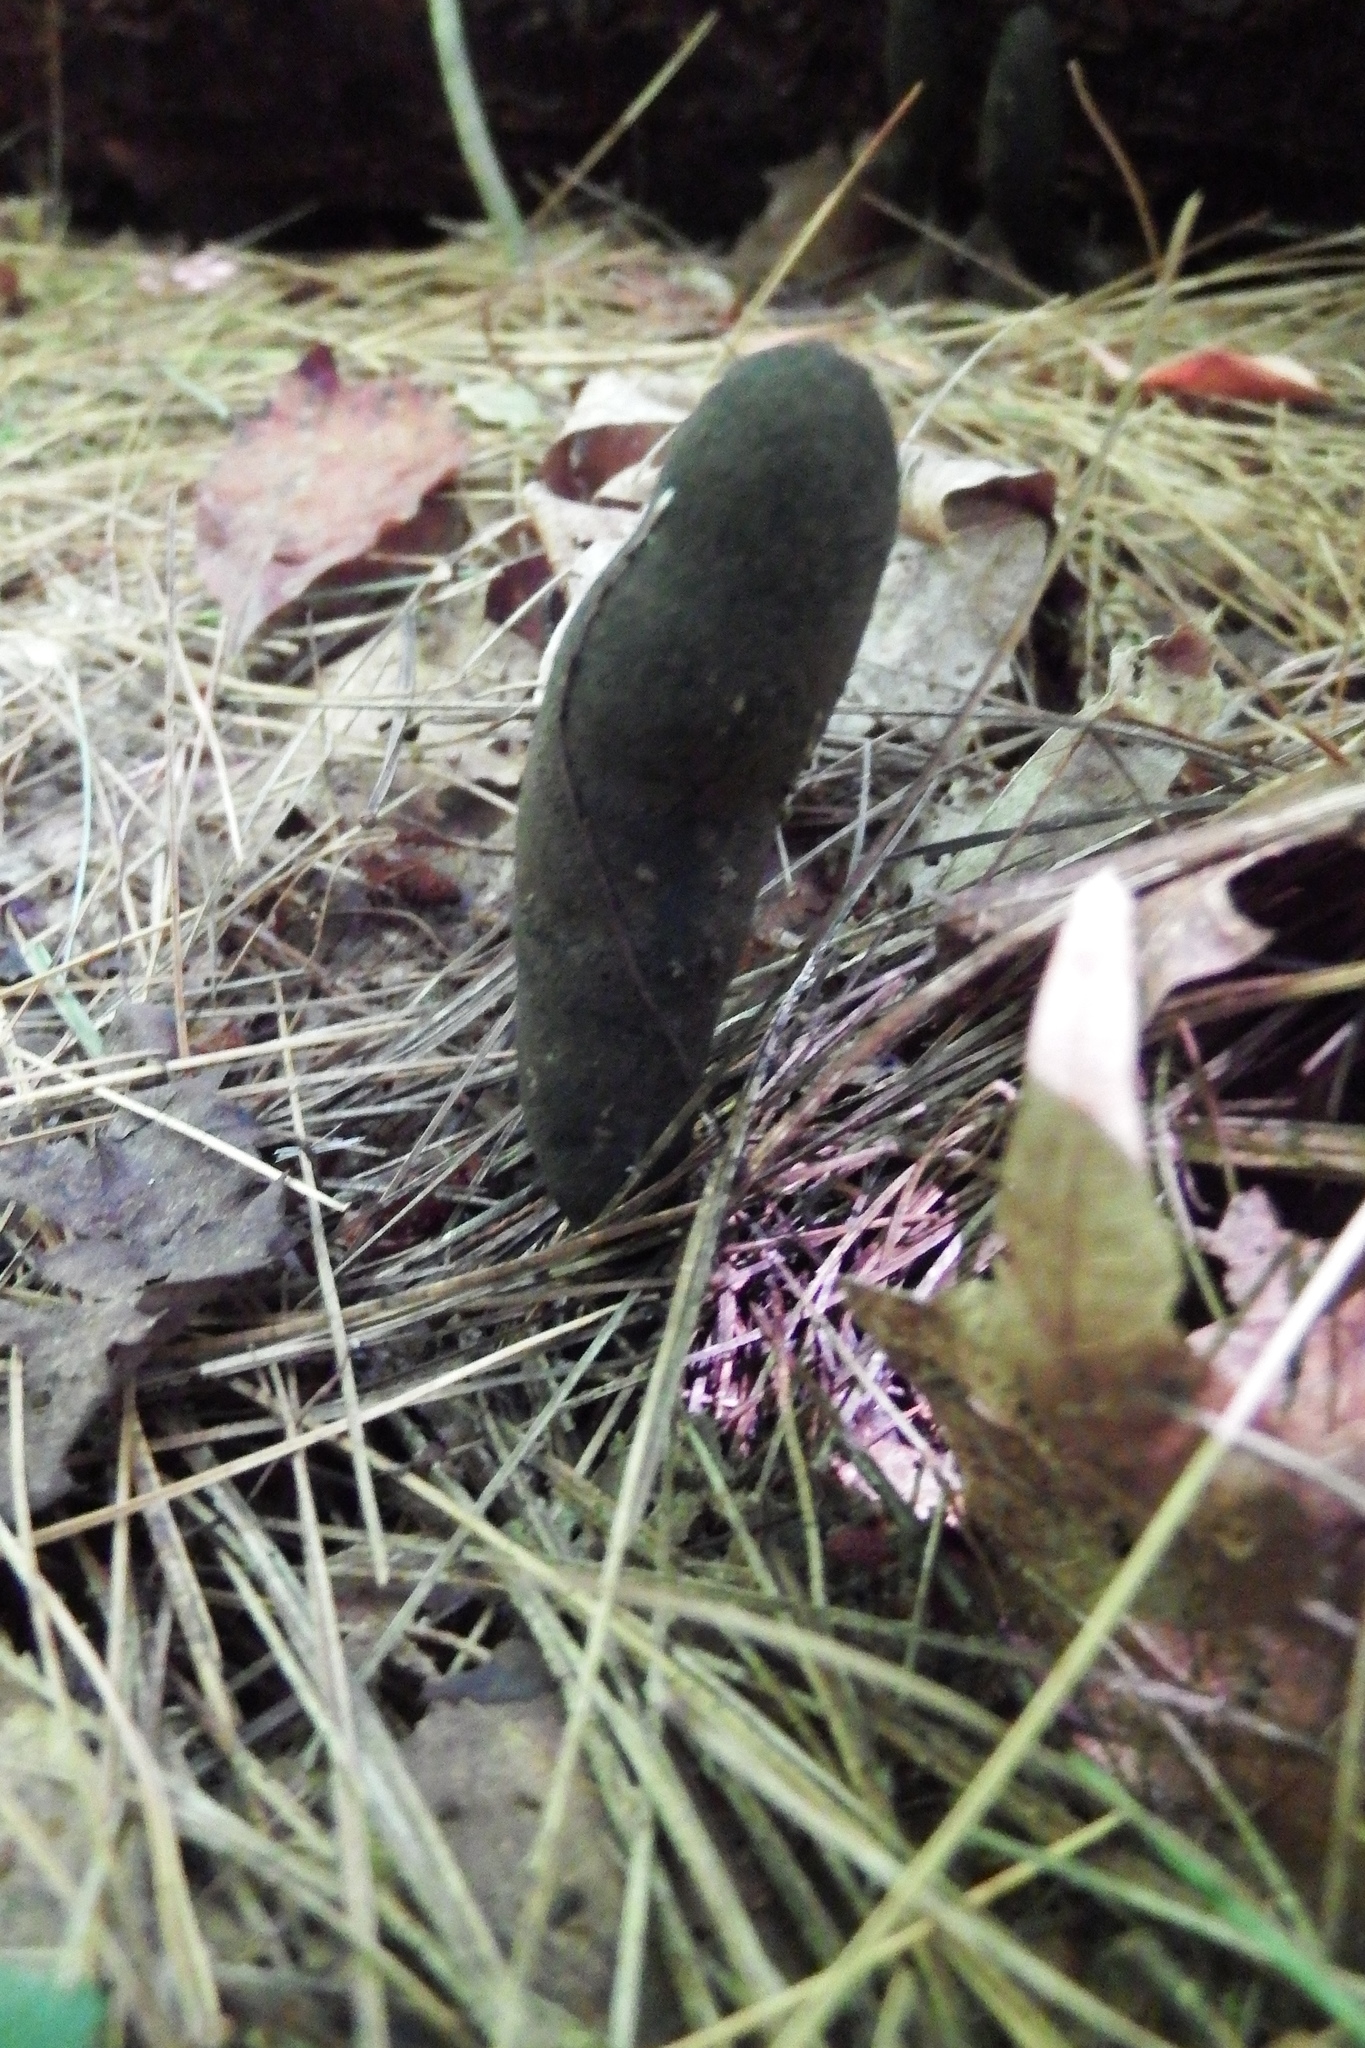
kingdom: Fungi
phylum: Ascomycota
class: Sordariomycetes
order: Xylariales
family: Xylariaceae
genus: Xylaria
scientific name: Xylaria polymorpha
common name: Dead man's fingers
